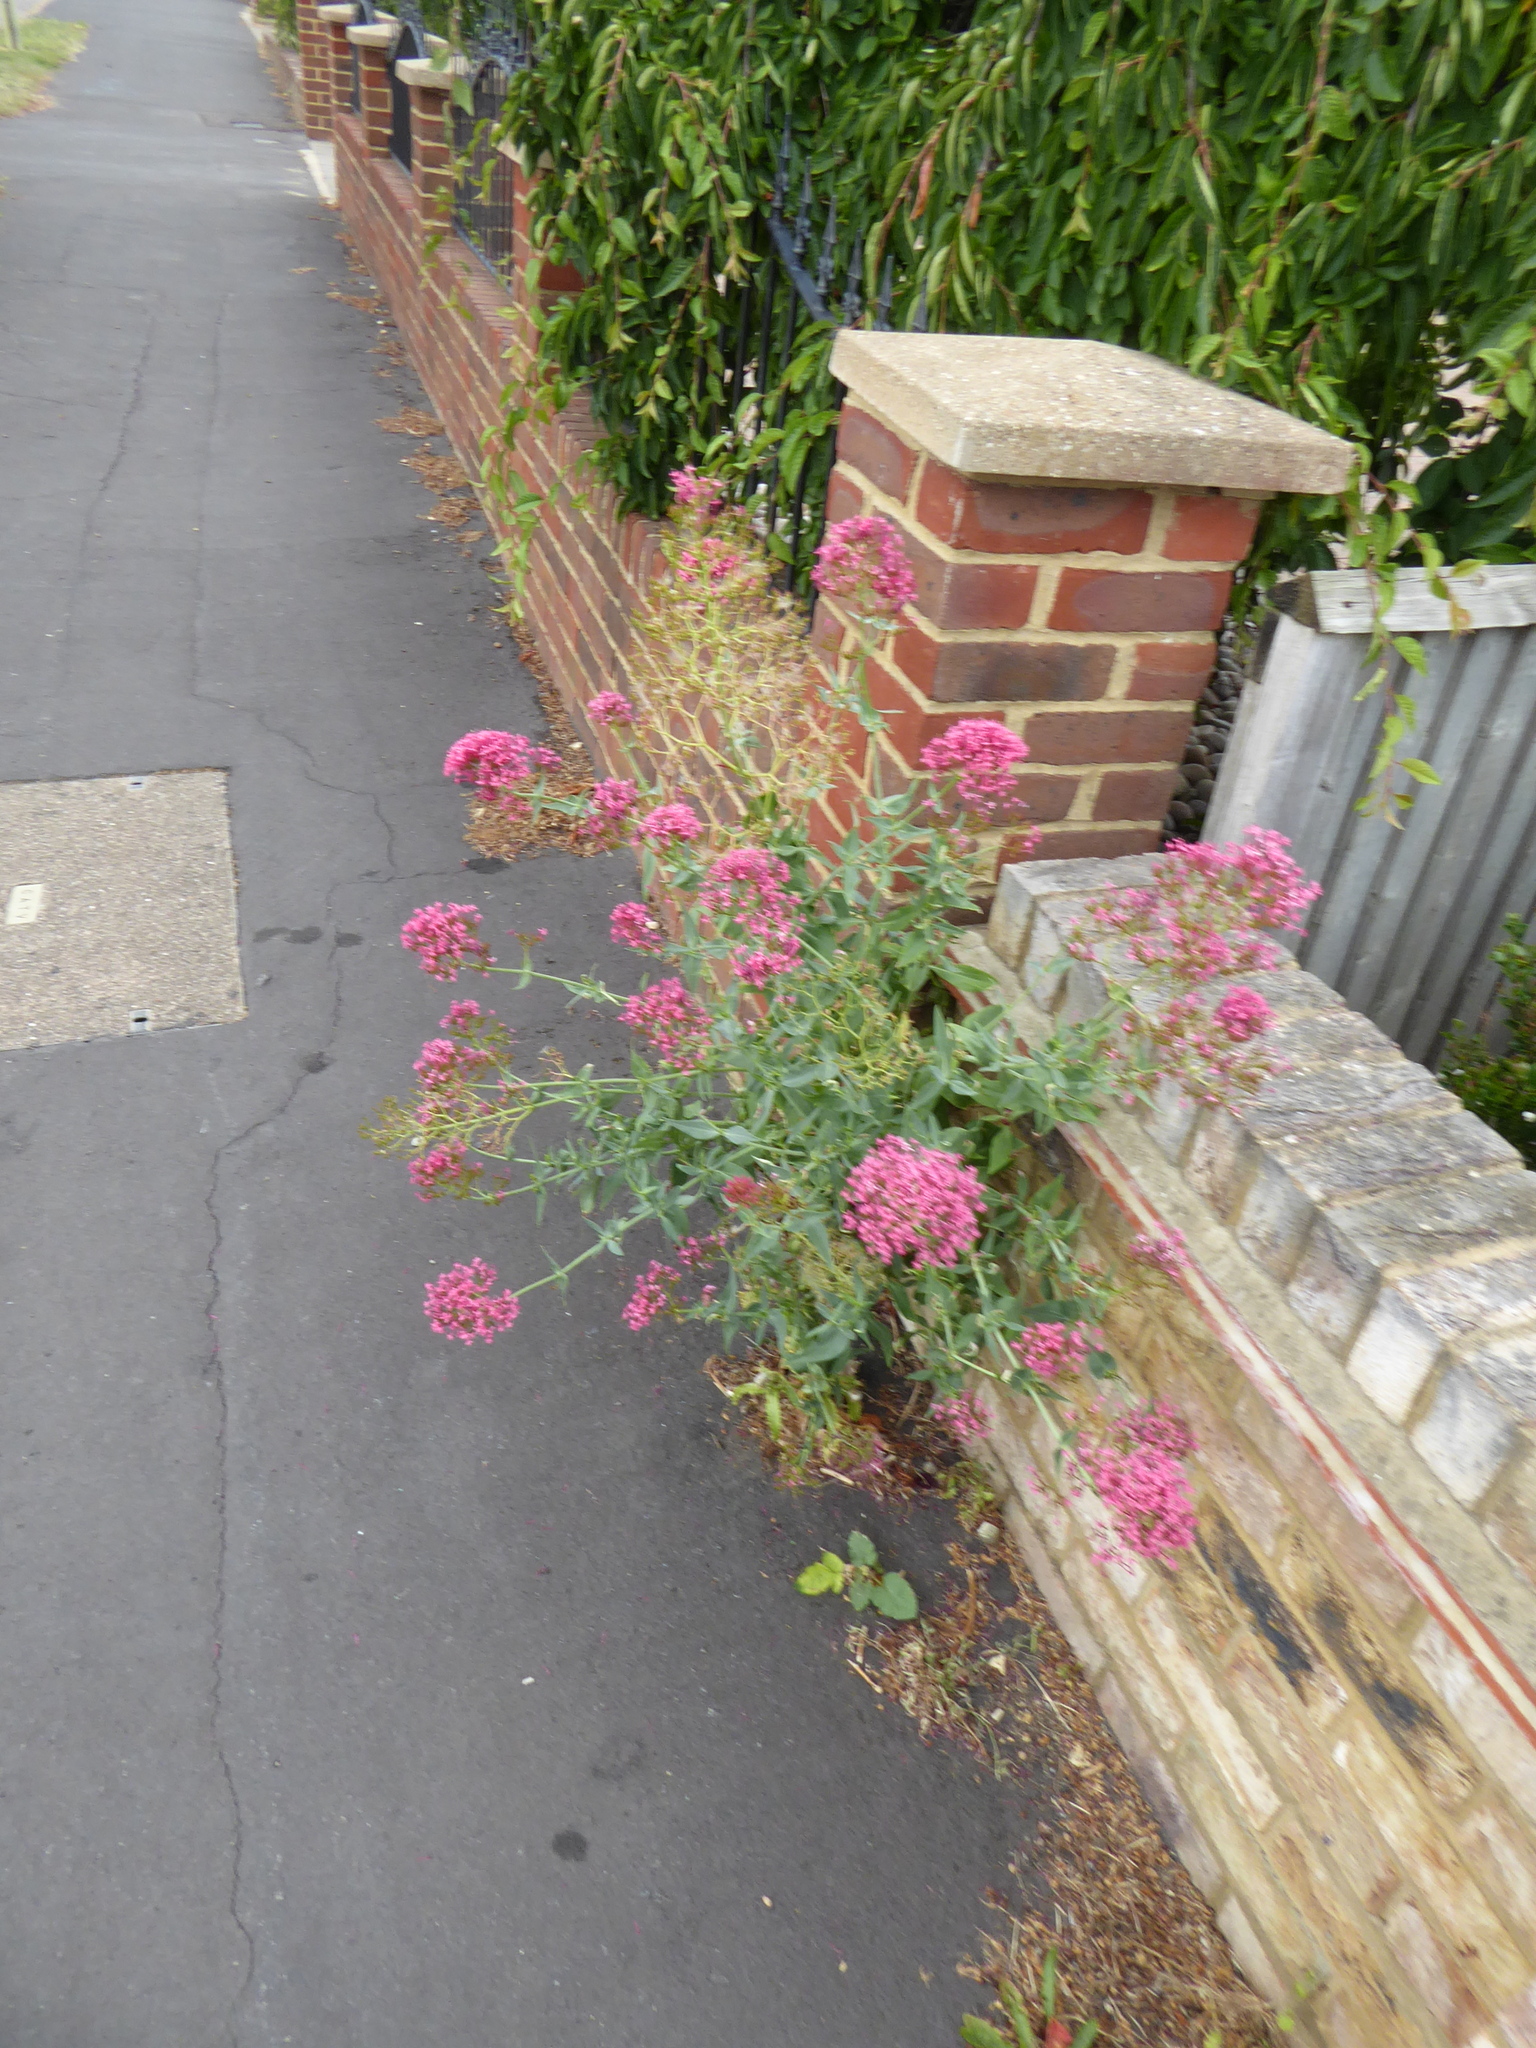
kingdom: Plantae
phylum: Tracheophyta
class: Magnoliopsida
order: Dipsacales
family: Caprifoliaceae
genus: Centranthus
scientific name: Centranthus ruber
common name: Red valerian
